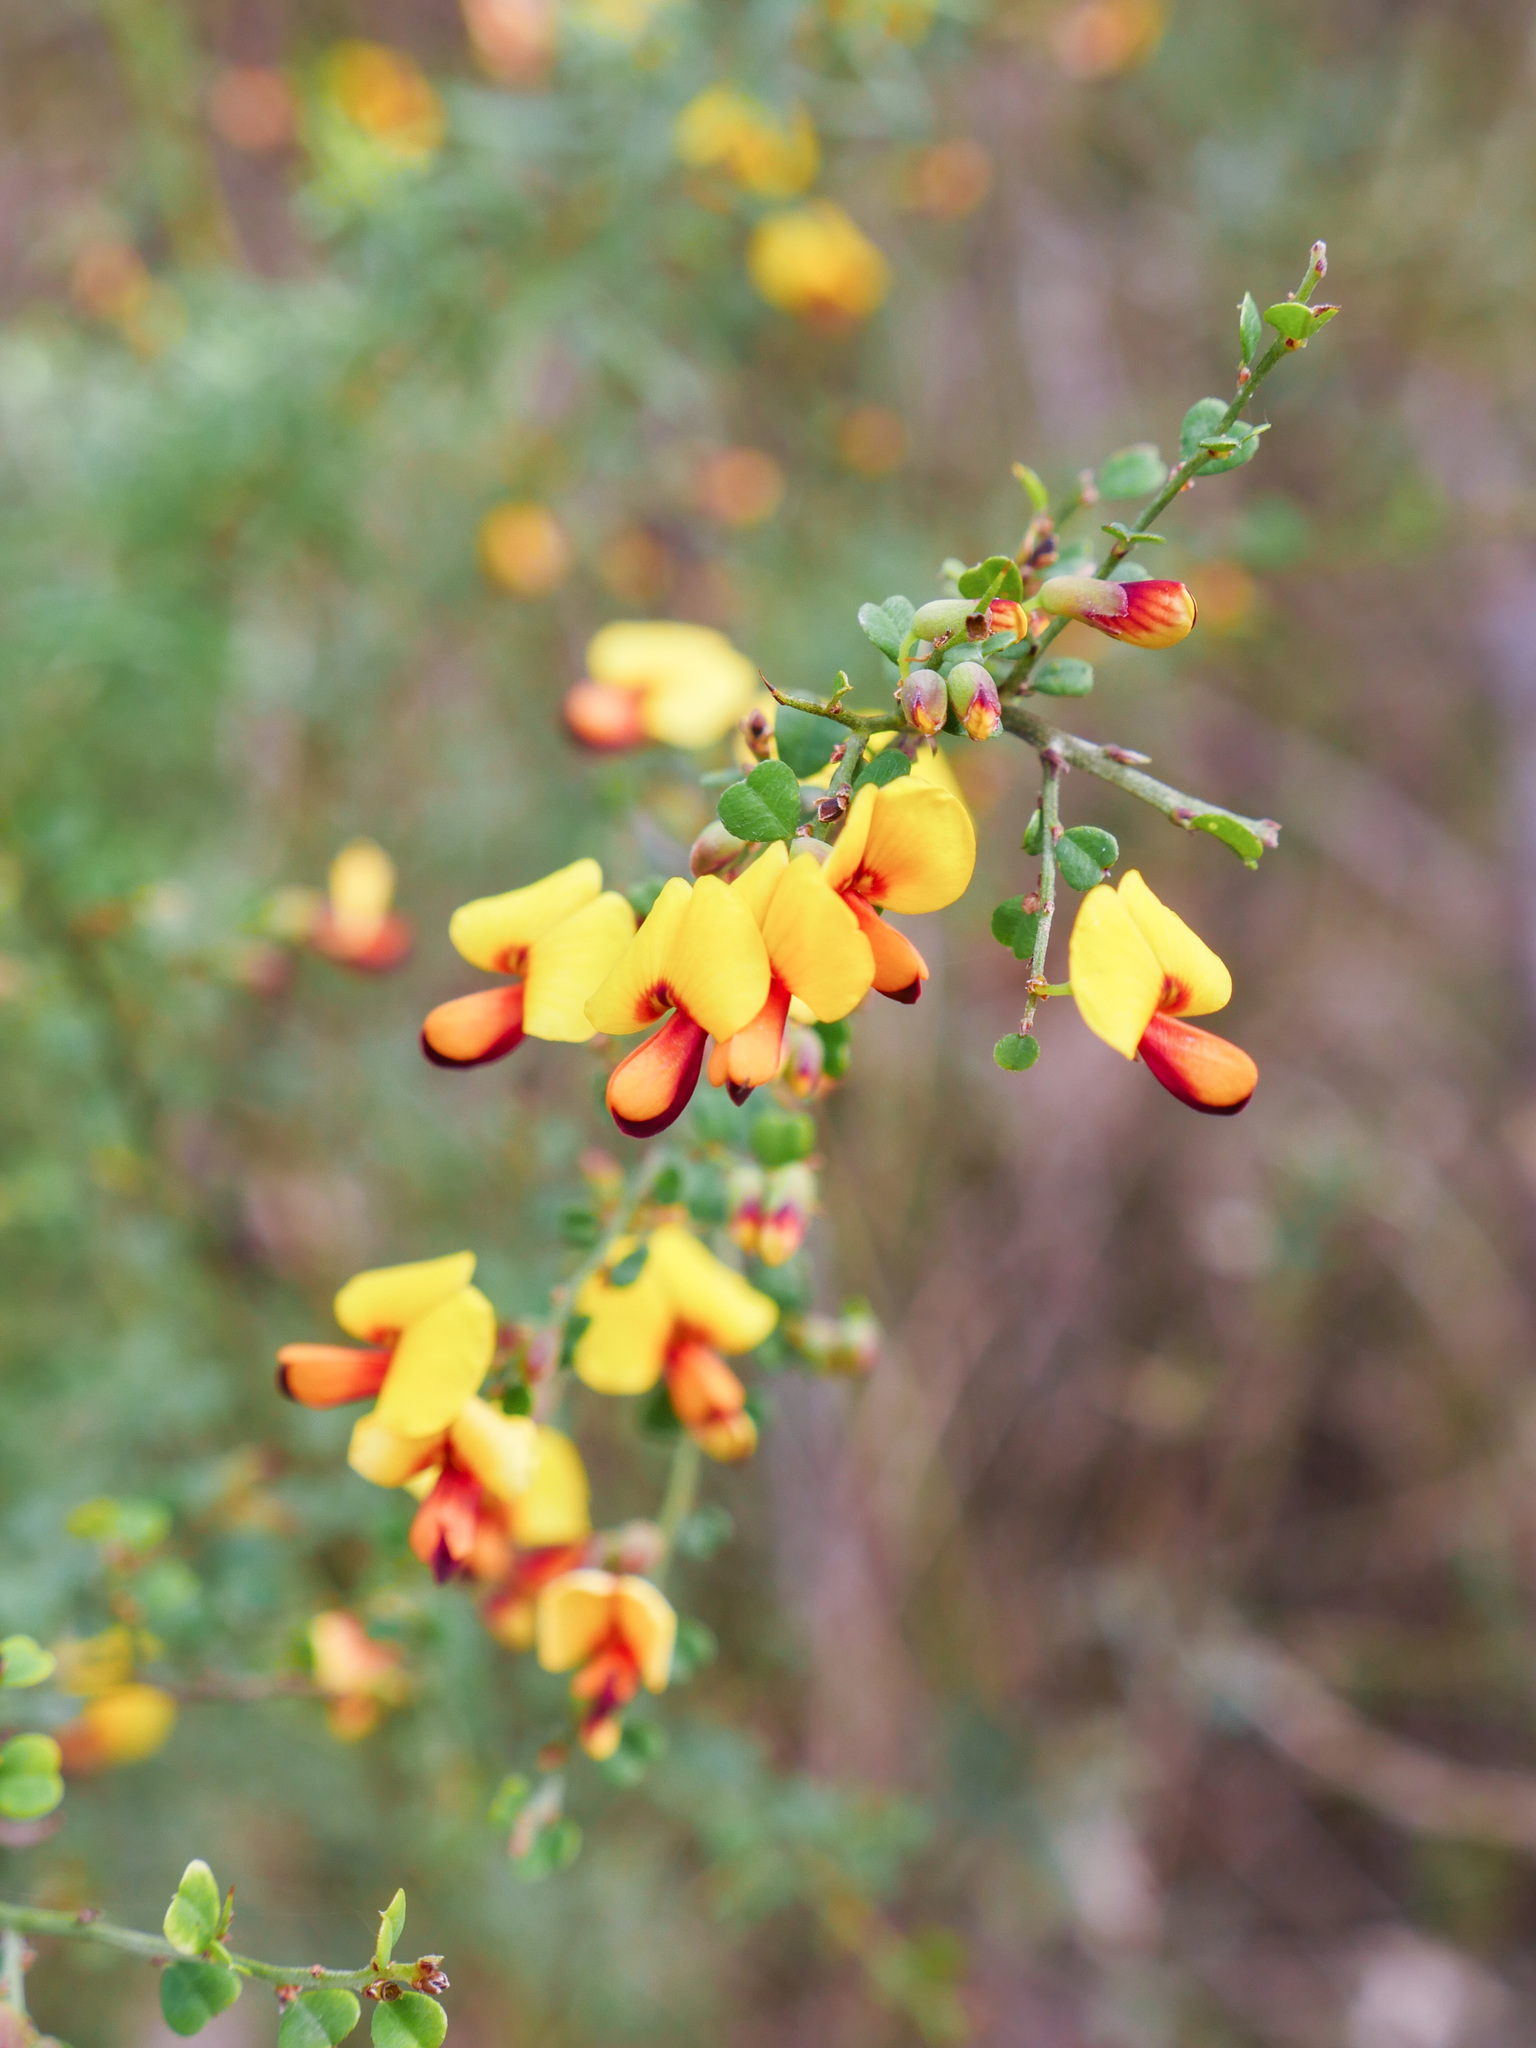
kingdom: Plantae
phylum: Tracheophyta
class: Magnoliopsida
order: Fabales
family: Fabaceae
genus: Bossiaea
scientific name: Bossiaea obcordata
